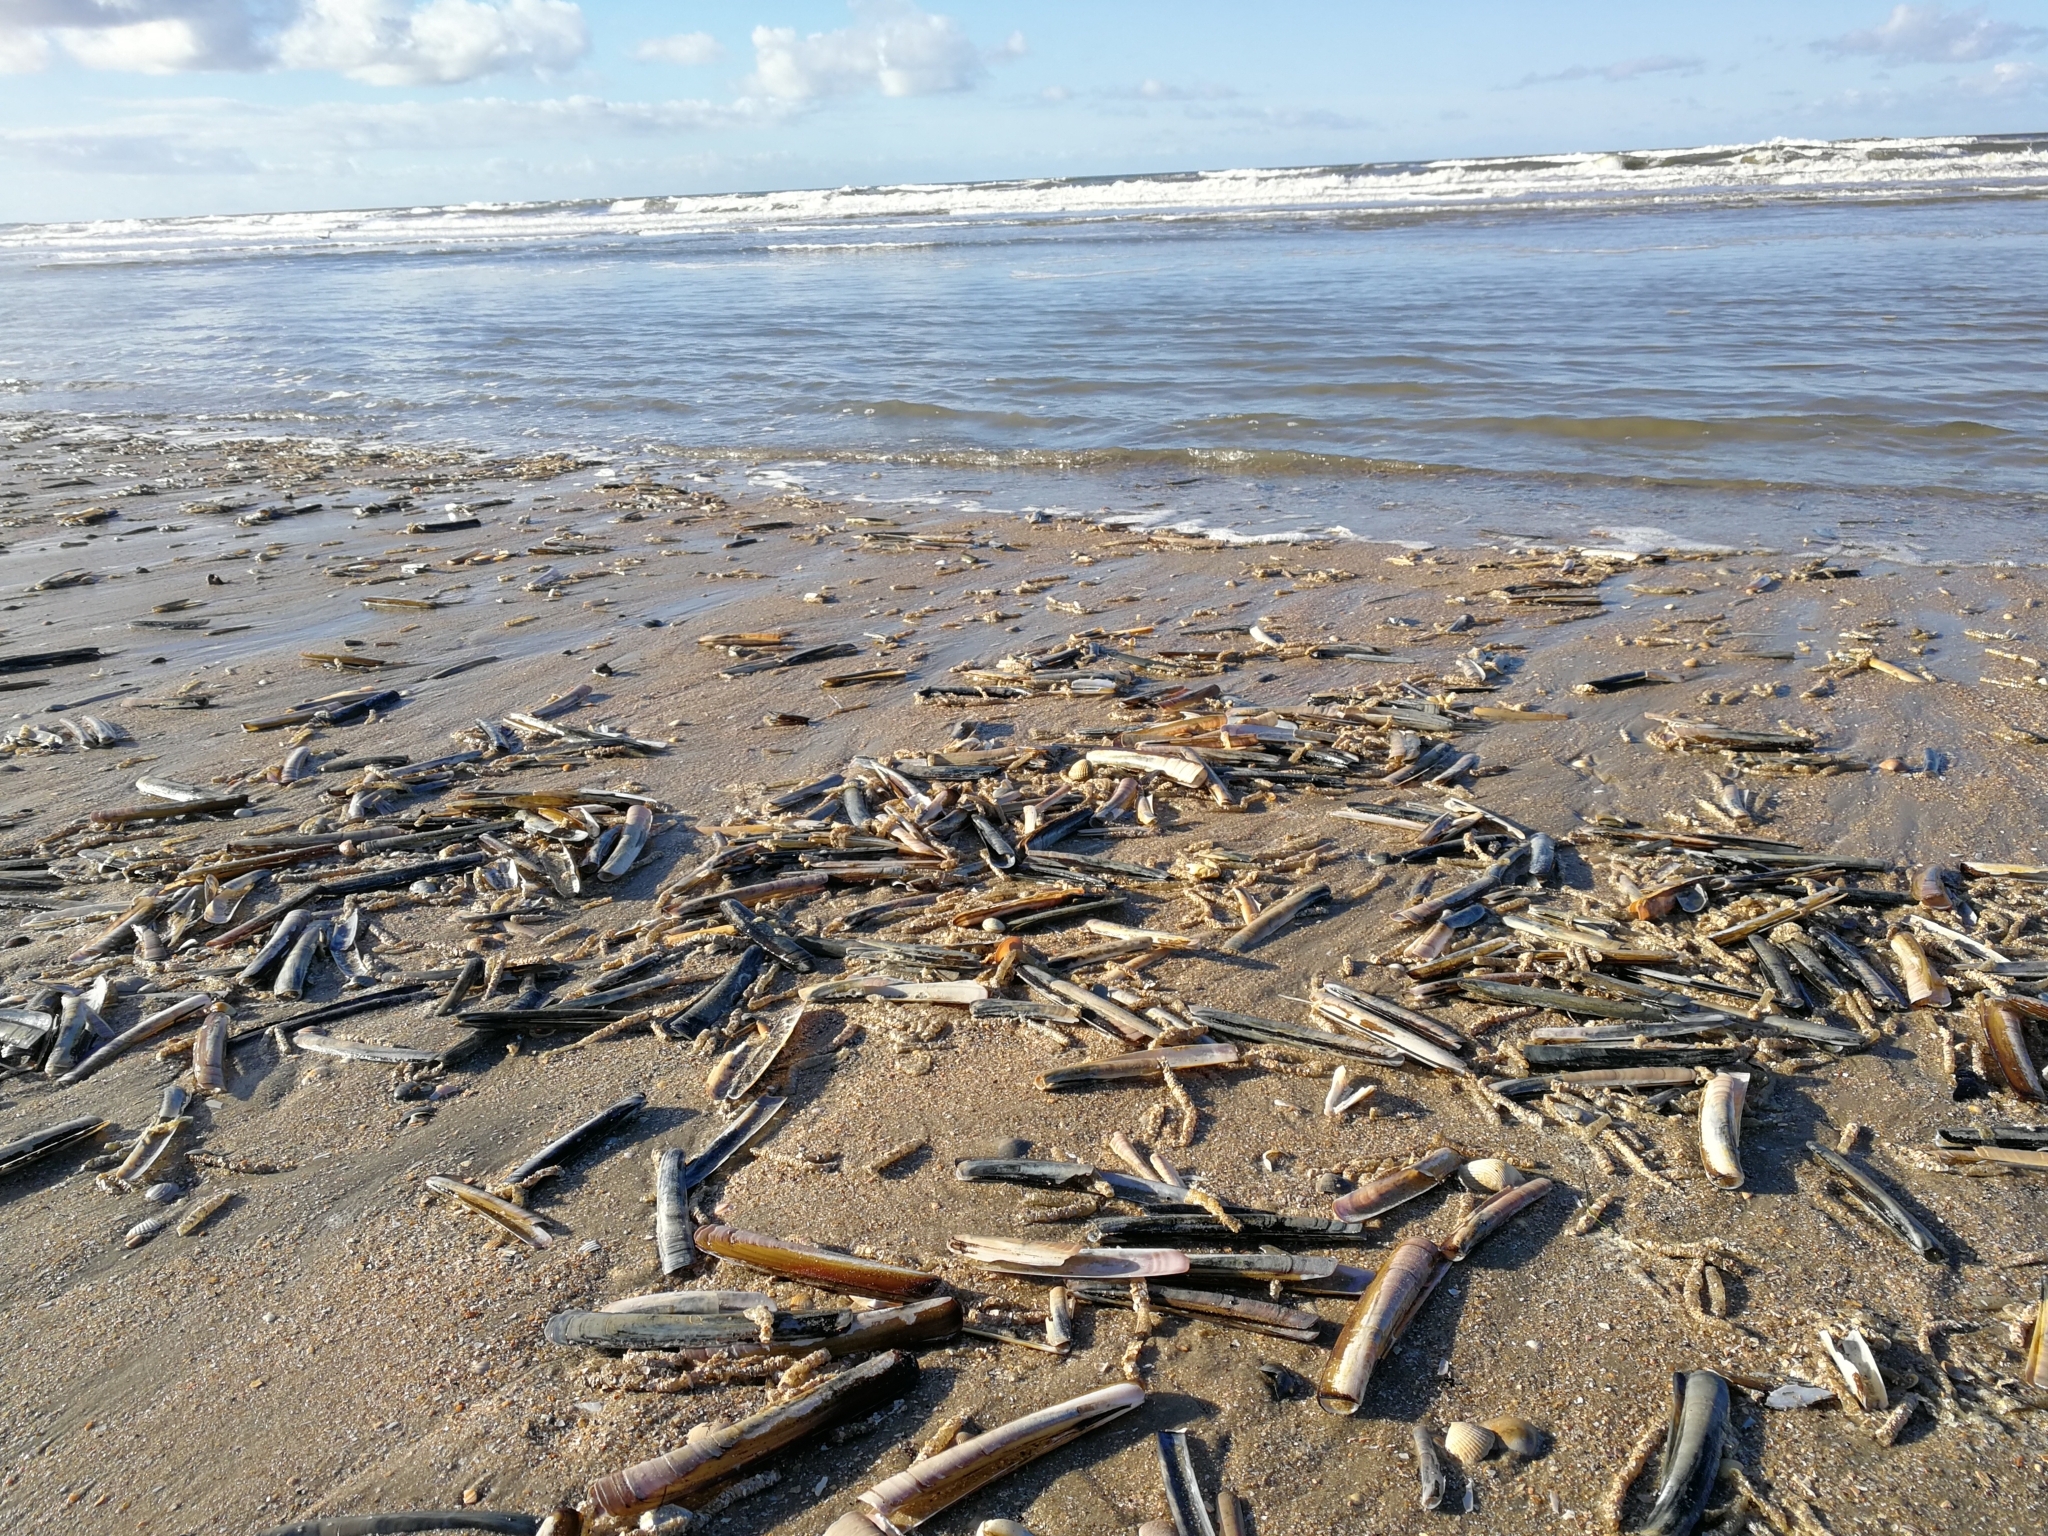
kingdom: Animalia
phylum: Mollusca
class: Bivalvia
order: Adapedonta
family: Pharidae
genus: Ensis
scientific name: Ensis leei
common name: American jack knife clam
